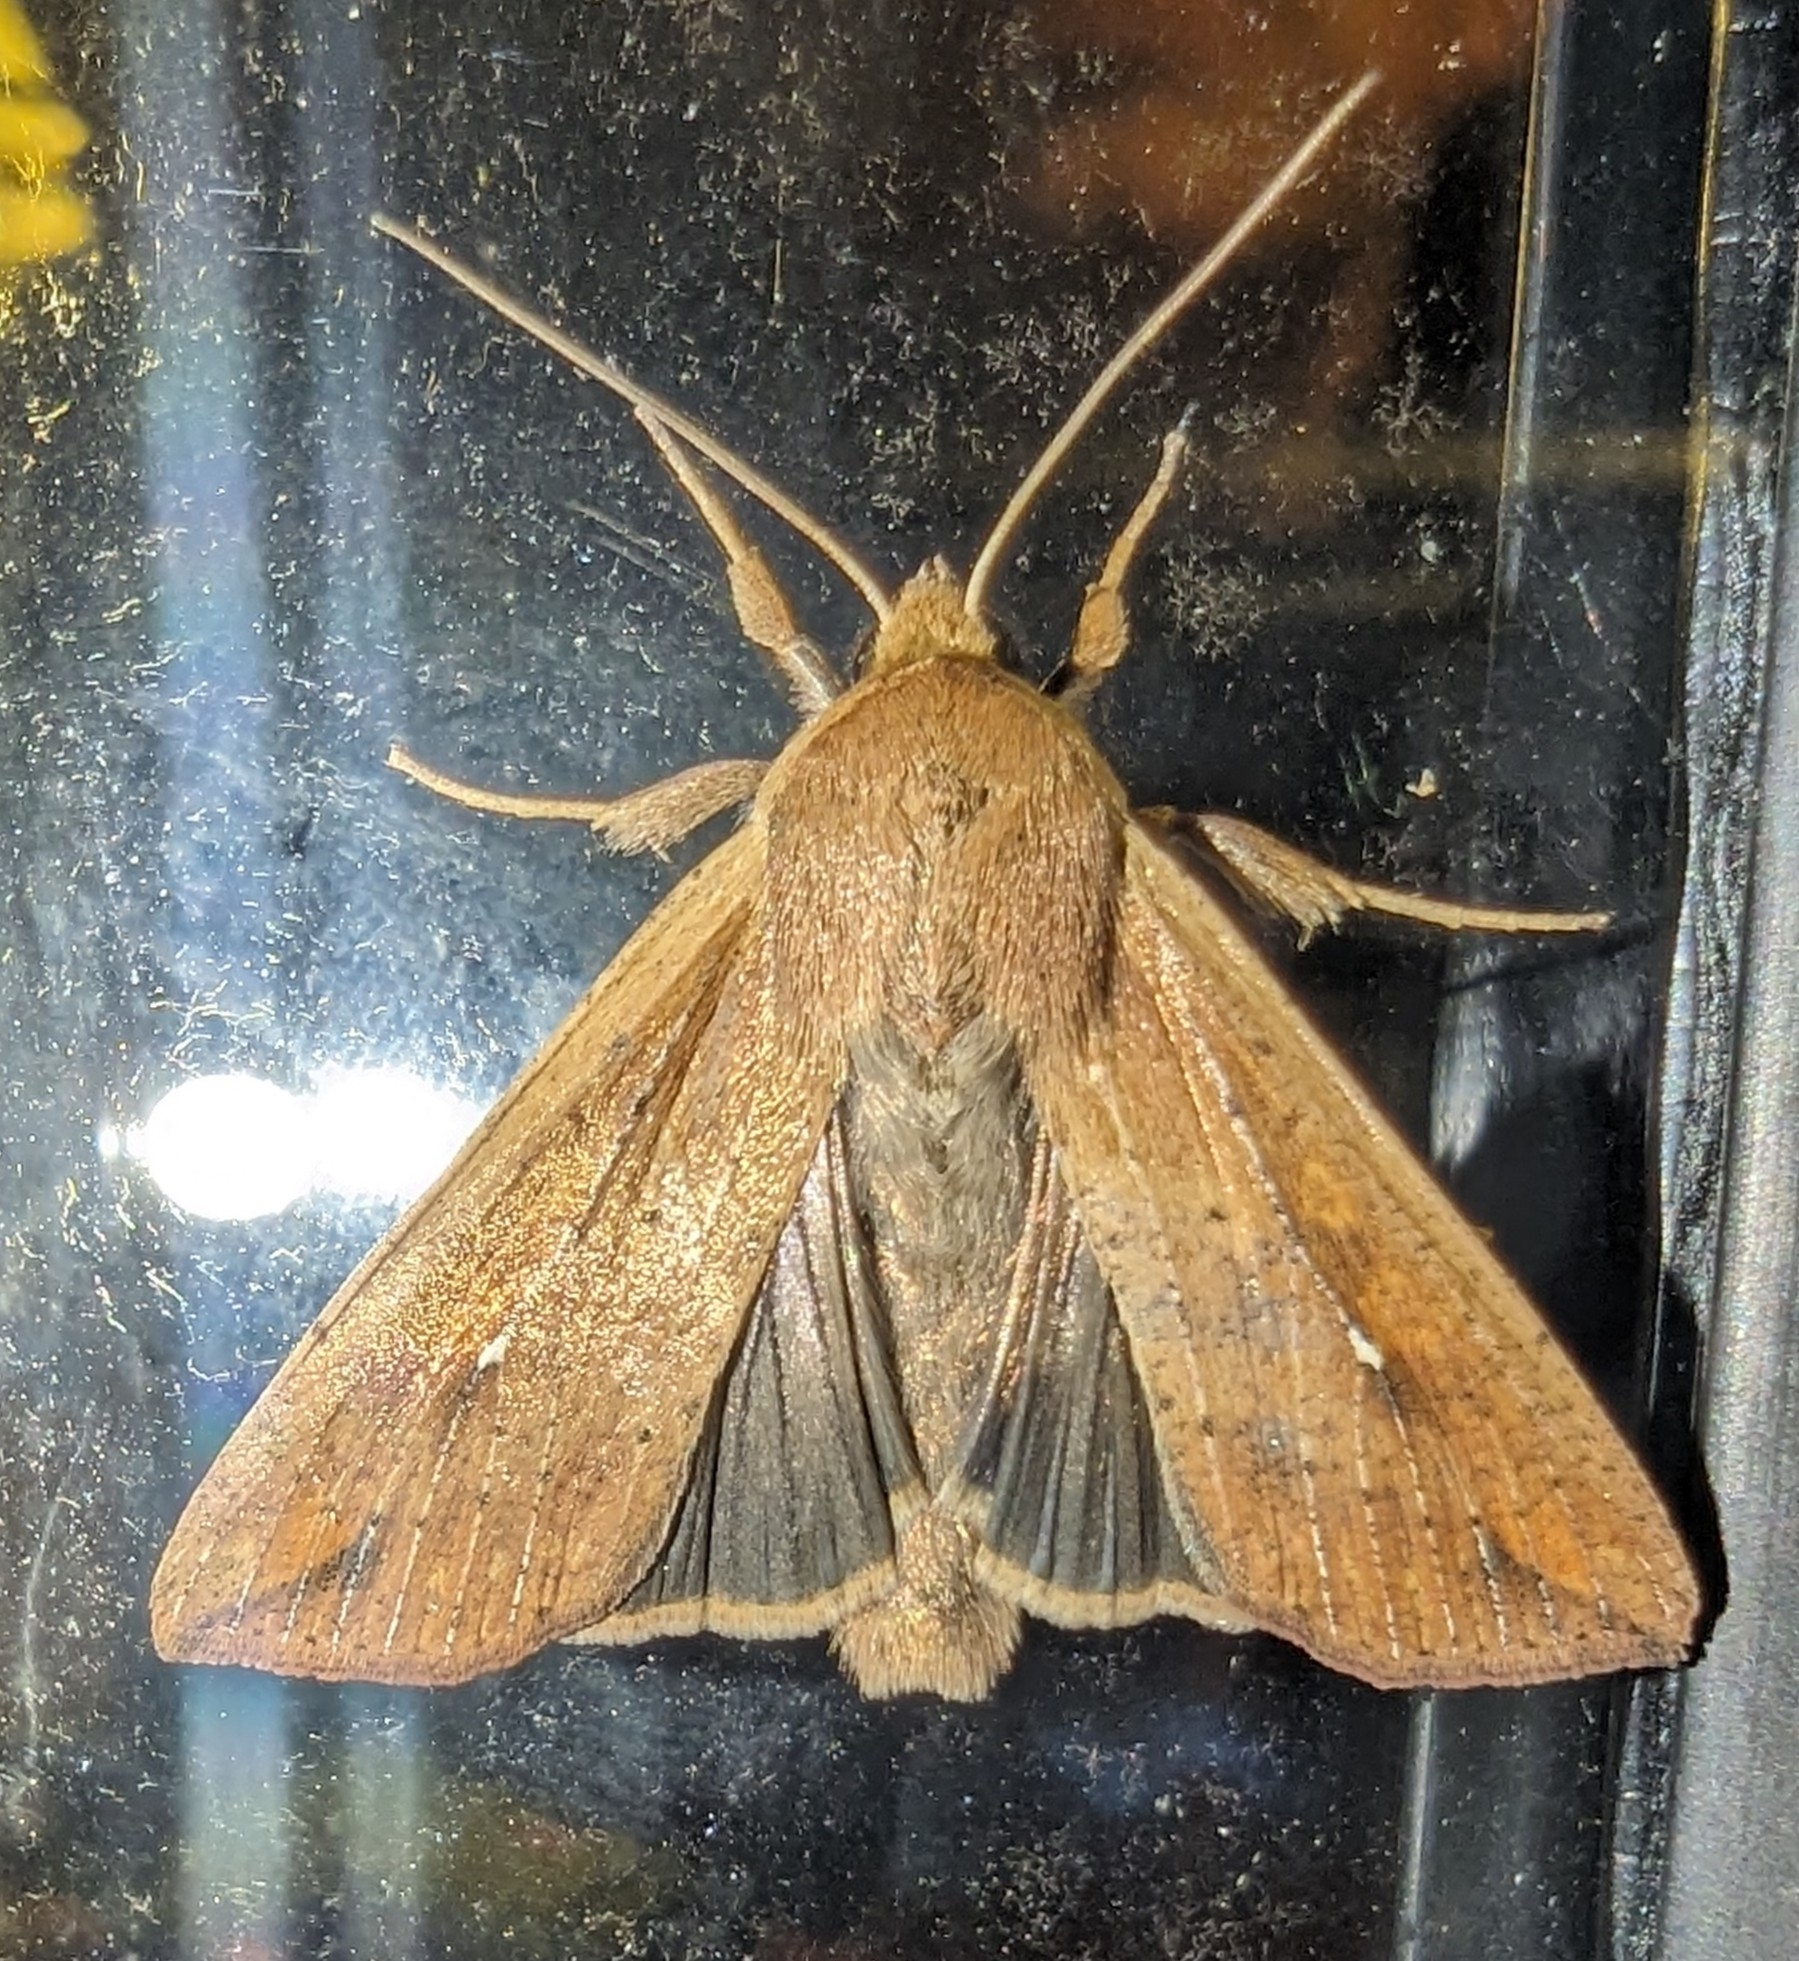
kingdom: Animalia
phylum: Arthropoda
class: Insecta
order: Lepidoptera
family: Noctuidae
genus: Mythimna
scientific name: Mythimna unipuncta
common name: White-speck
